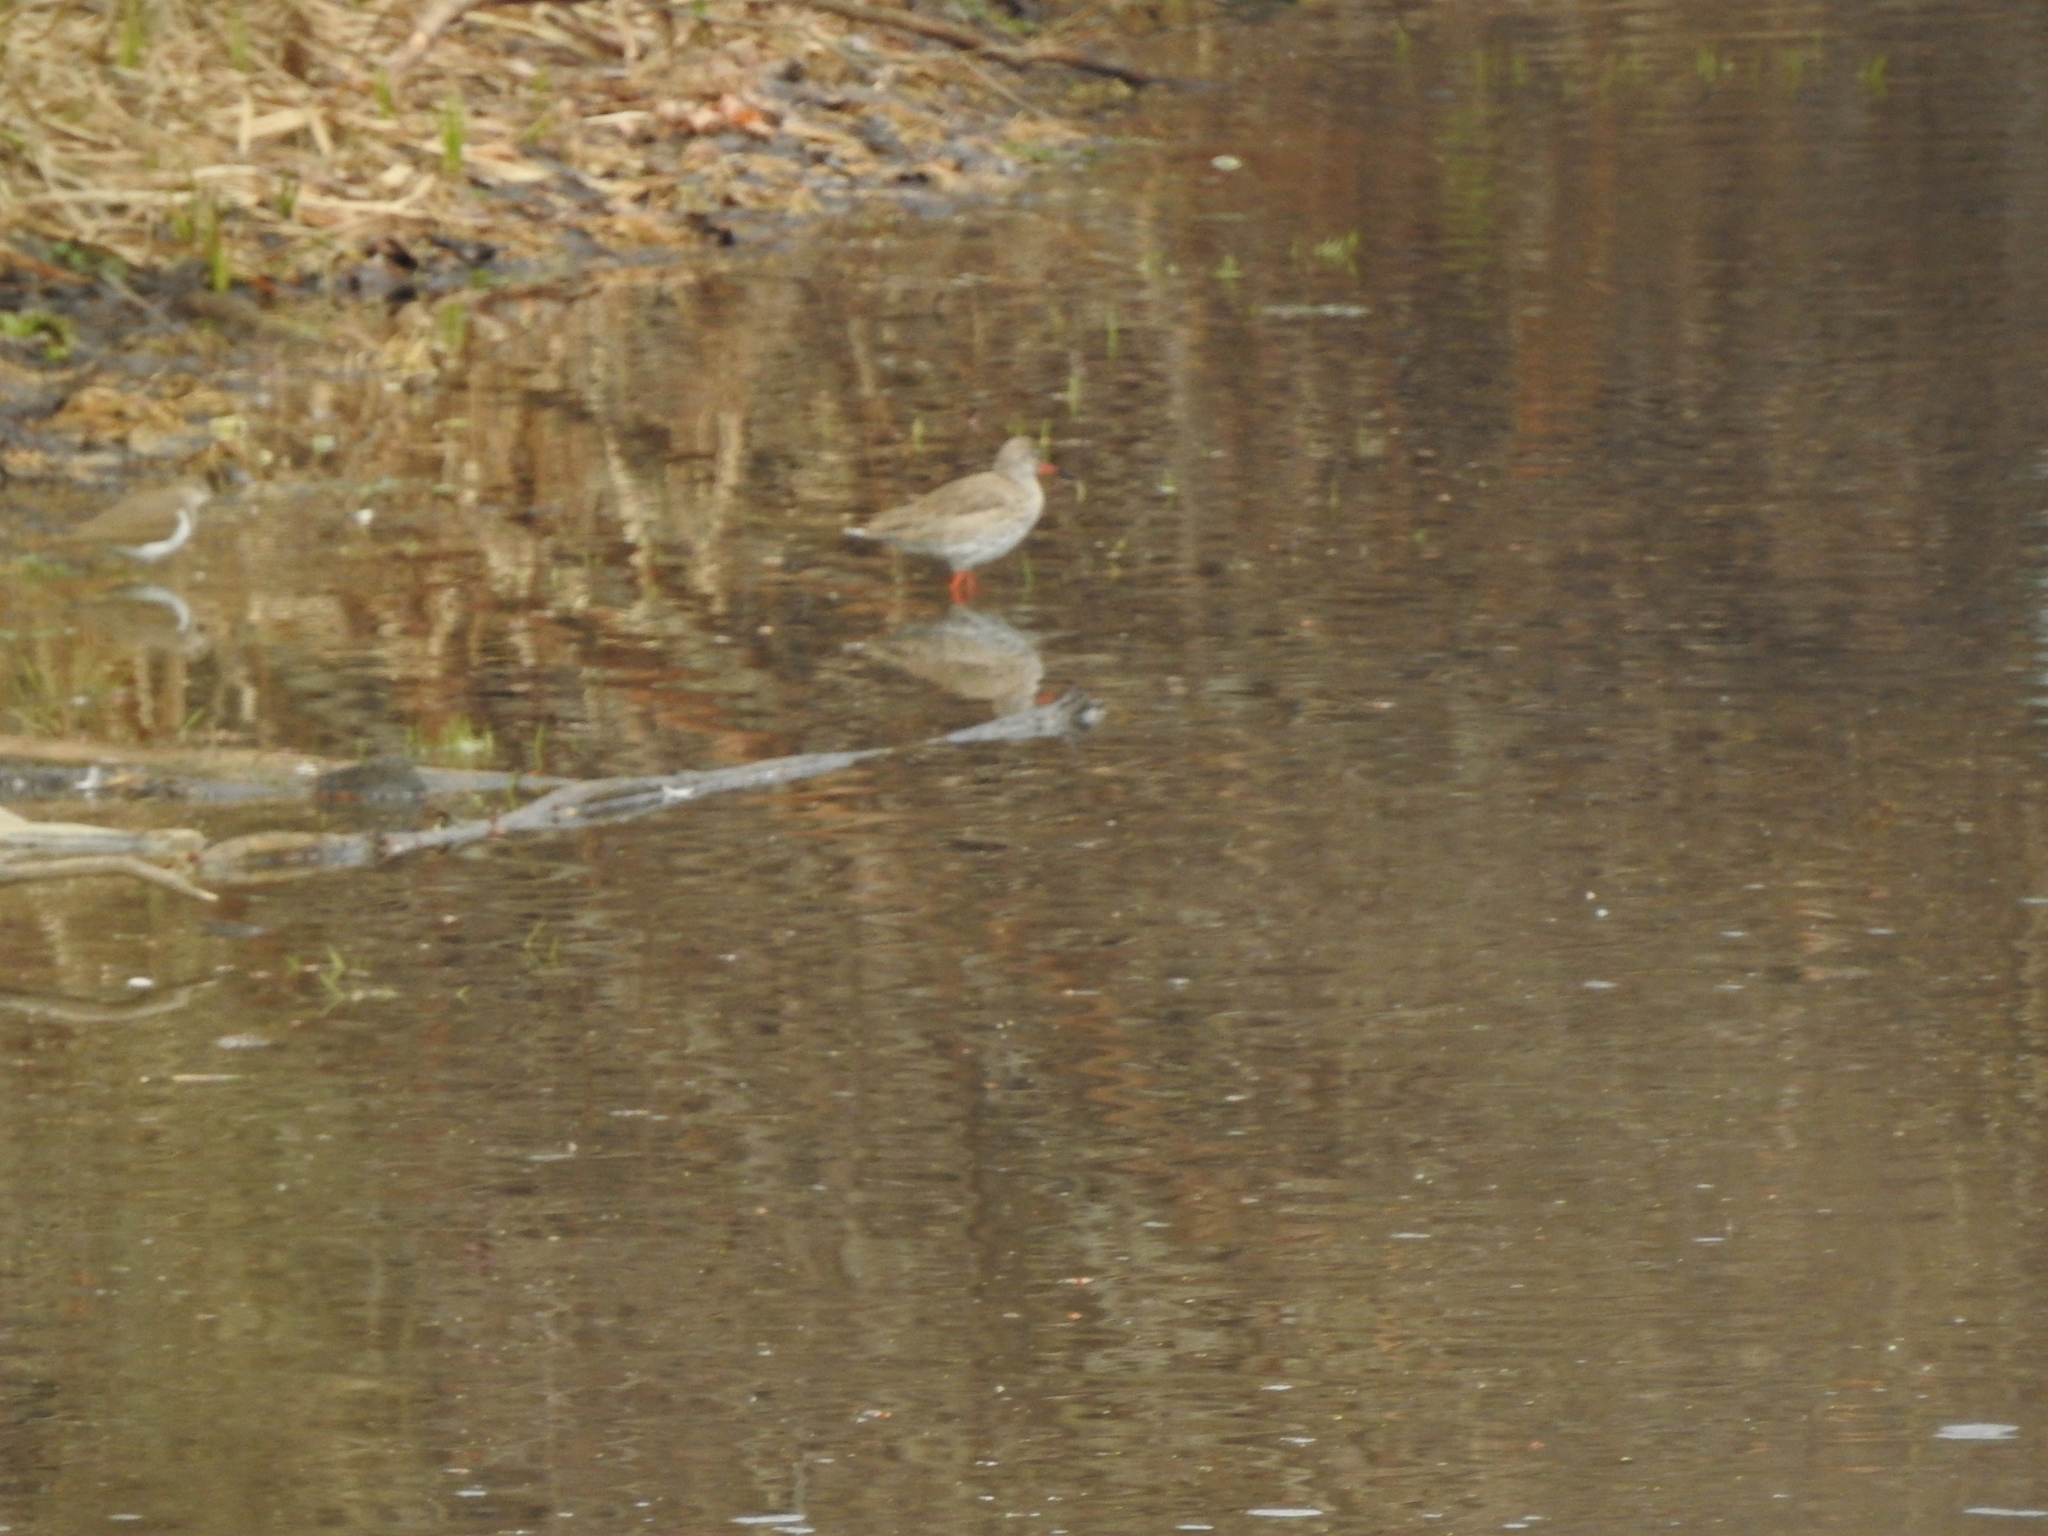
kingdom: Animalia
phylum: Chordata
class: Aves
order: Charadriiformes
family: Scolopacidae
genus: Tringa
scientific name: Tringa totanus
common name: Common redshank
